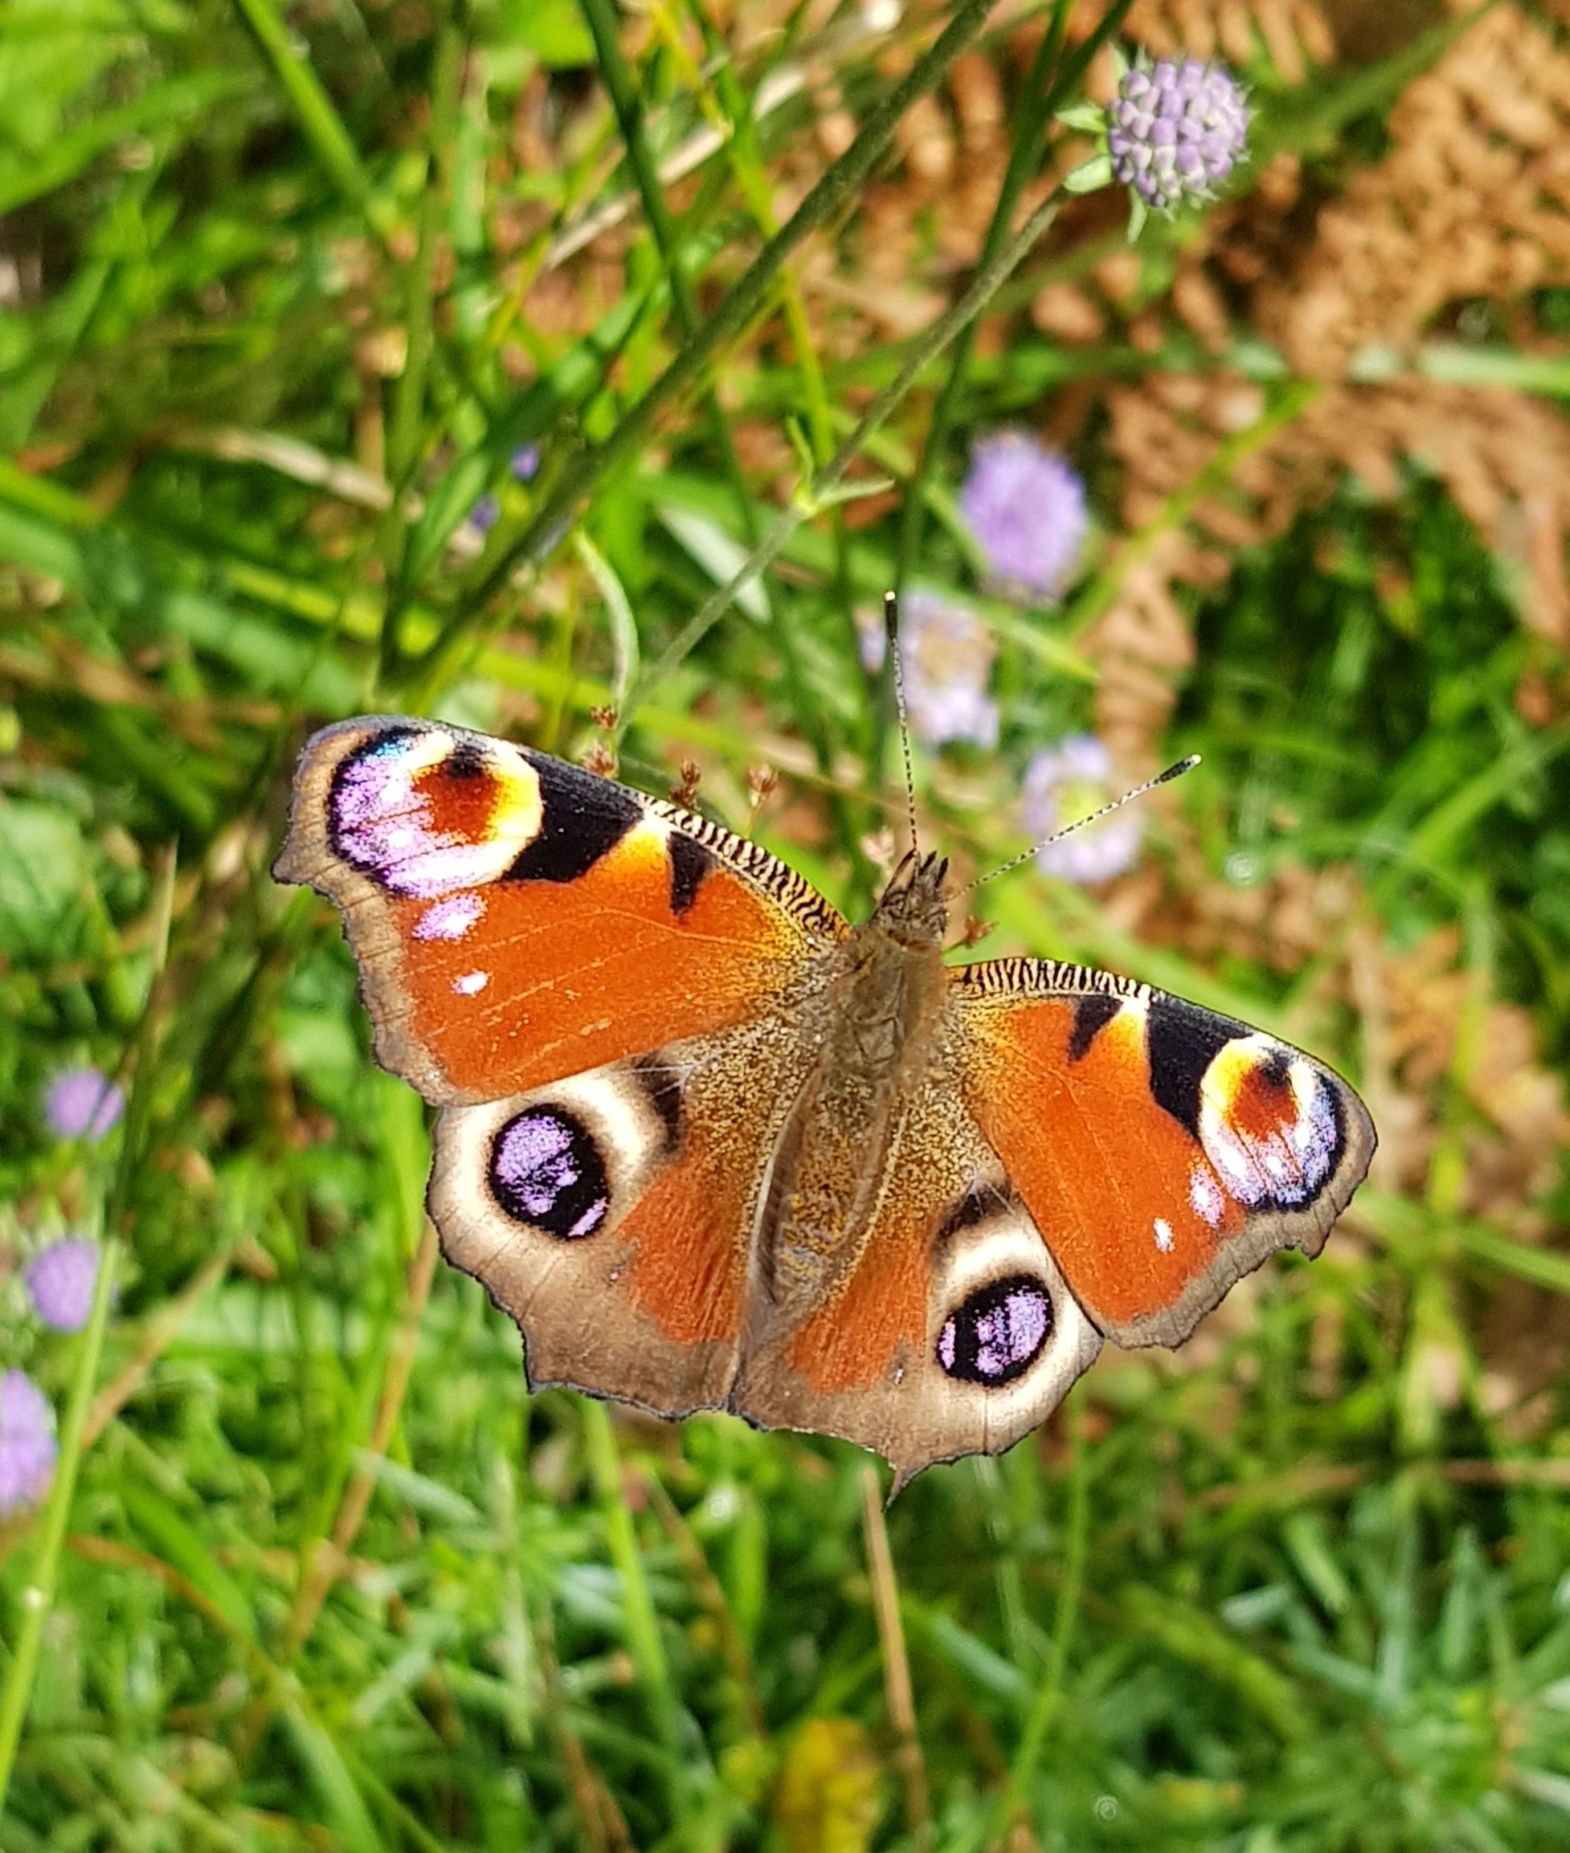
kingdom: Animalia
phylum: Arthropoda
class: Insecta
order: Lepidoptera
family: Nymphalidae
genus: Aglais
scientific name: Aglais io
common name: Peacock
